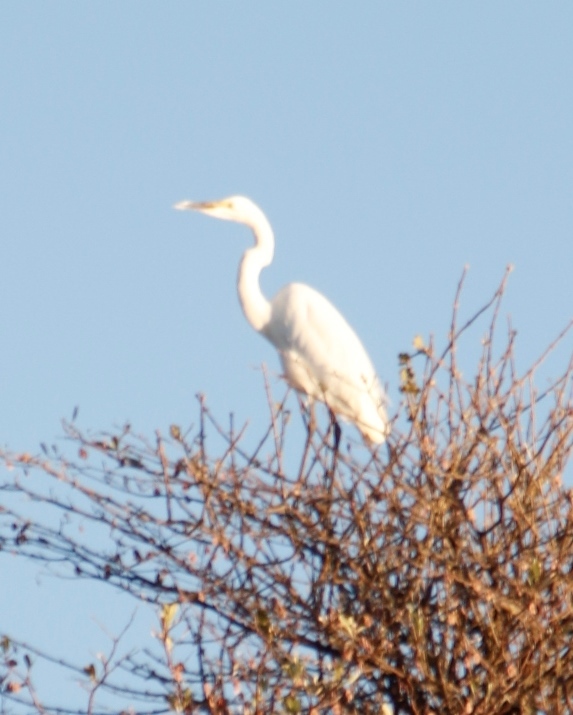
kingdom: Animalia
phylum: Chordata
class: Aves
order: Pelecaniformes
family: Ardeidae
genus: Ardea
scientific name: Ardea alba
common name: Great egret
